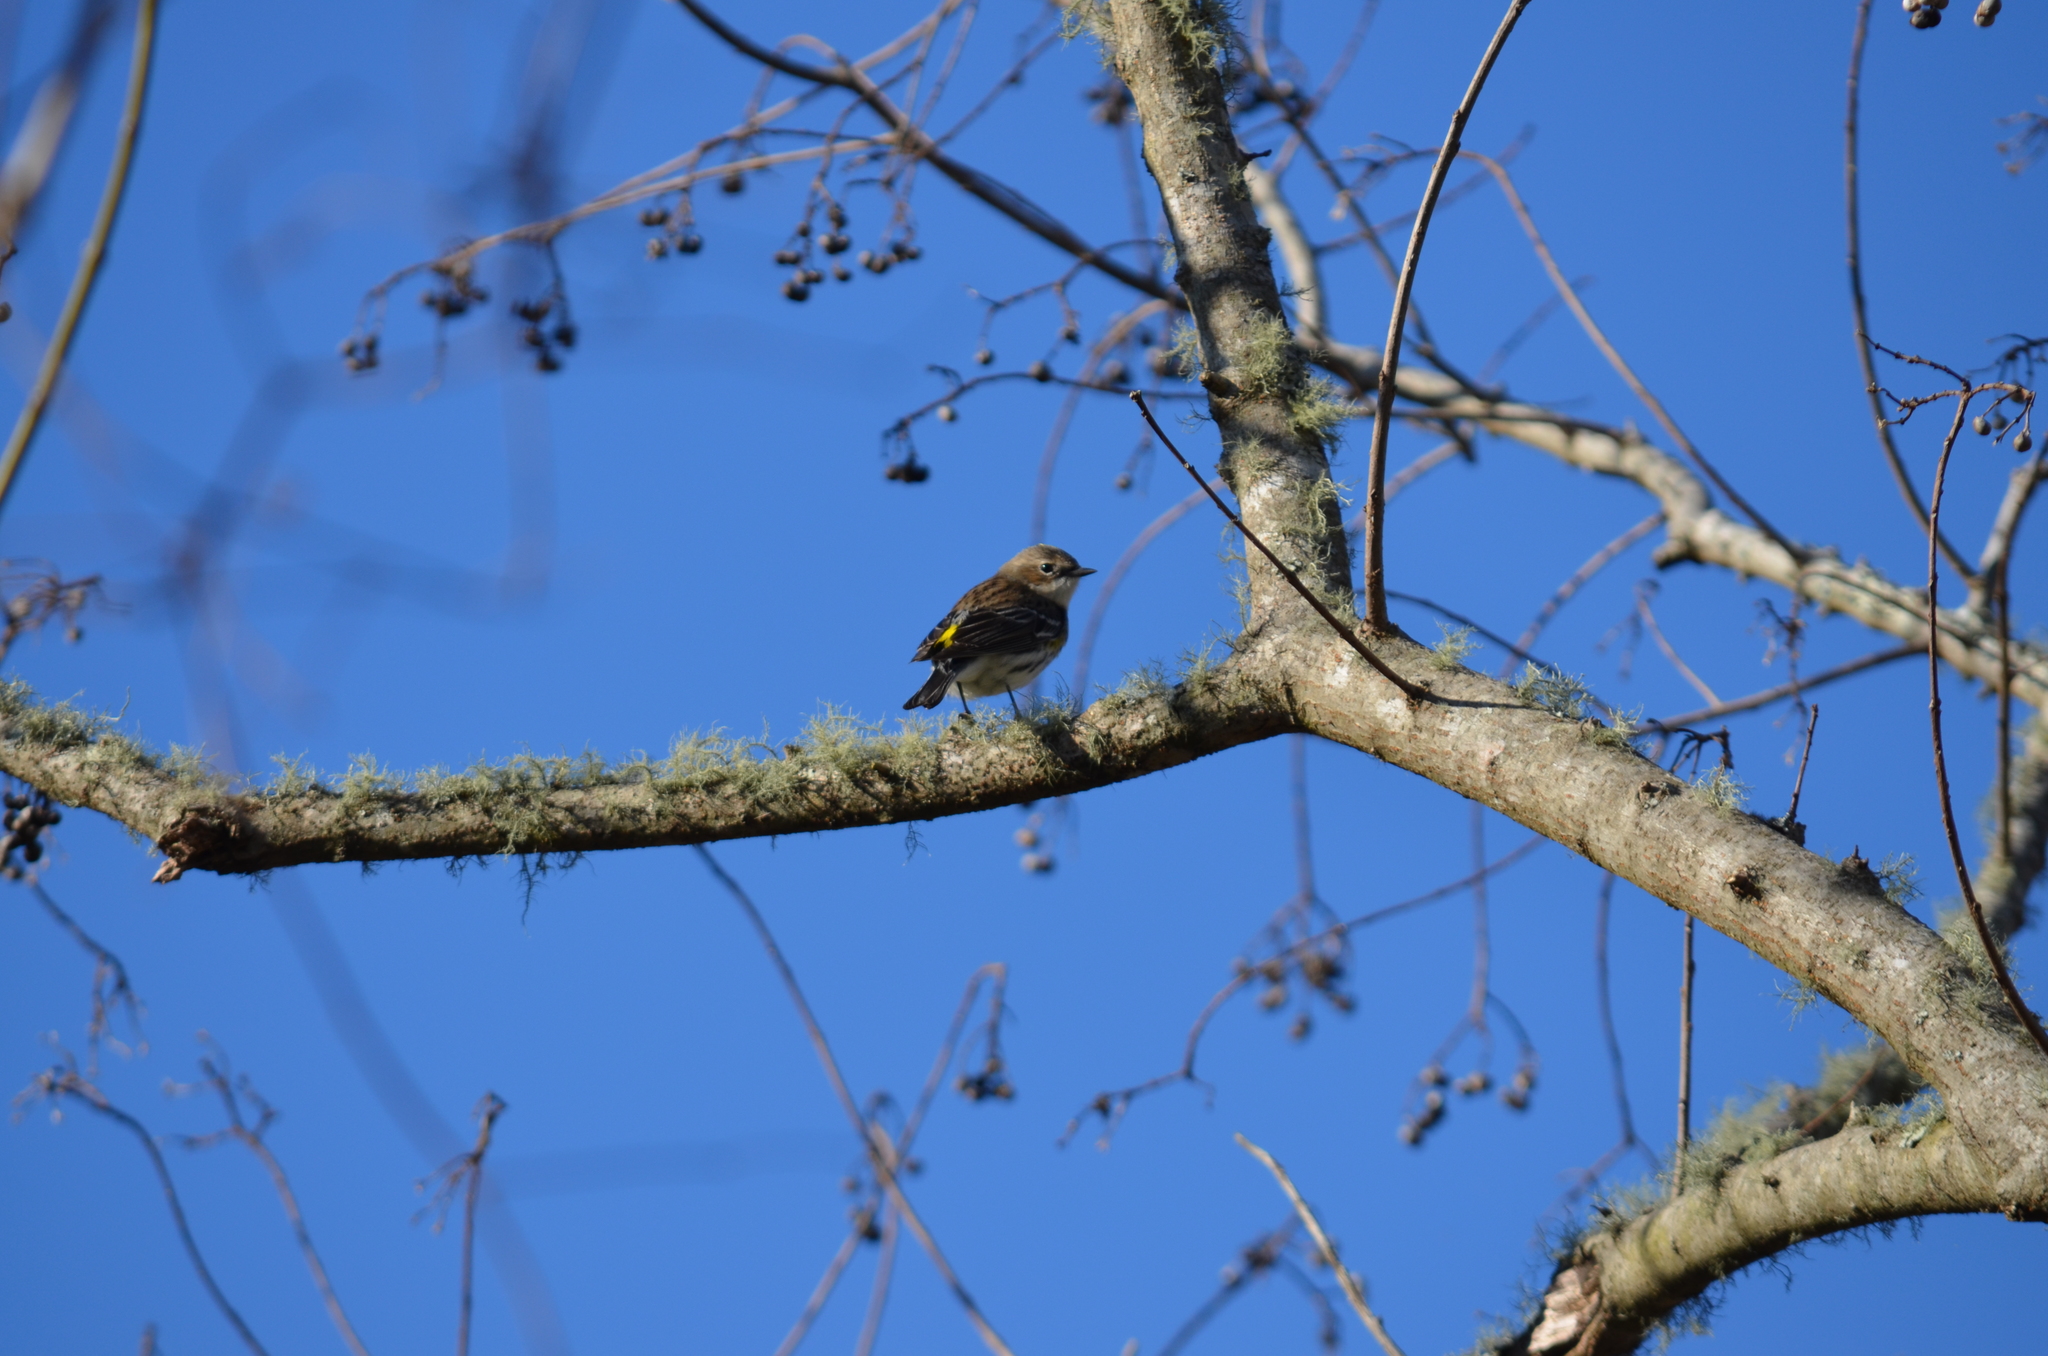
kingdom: Animalia
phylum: Chordata
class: Aves
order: Passeriformes
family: Parulidae
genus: Setophaga
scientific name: Setophaga coronata
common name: Myrtle warbler
